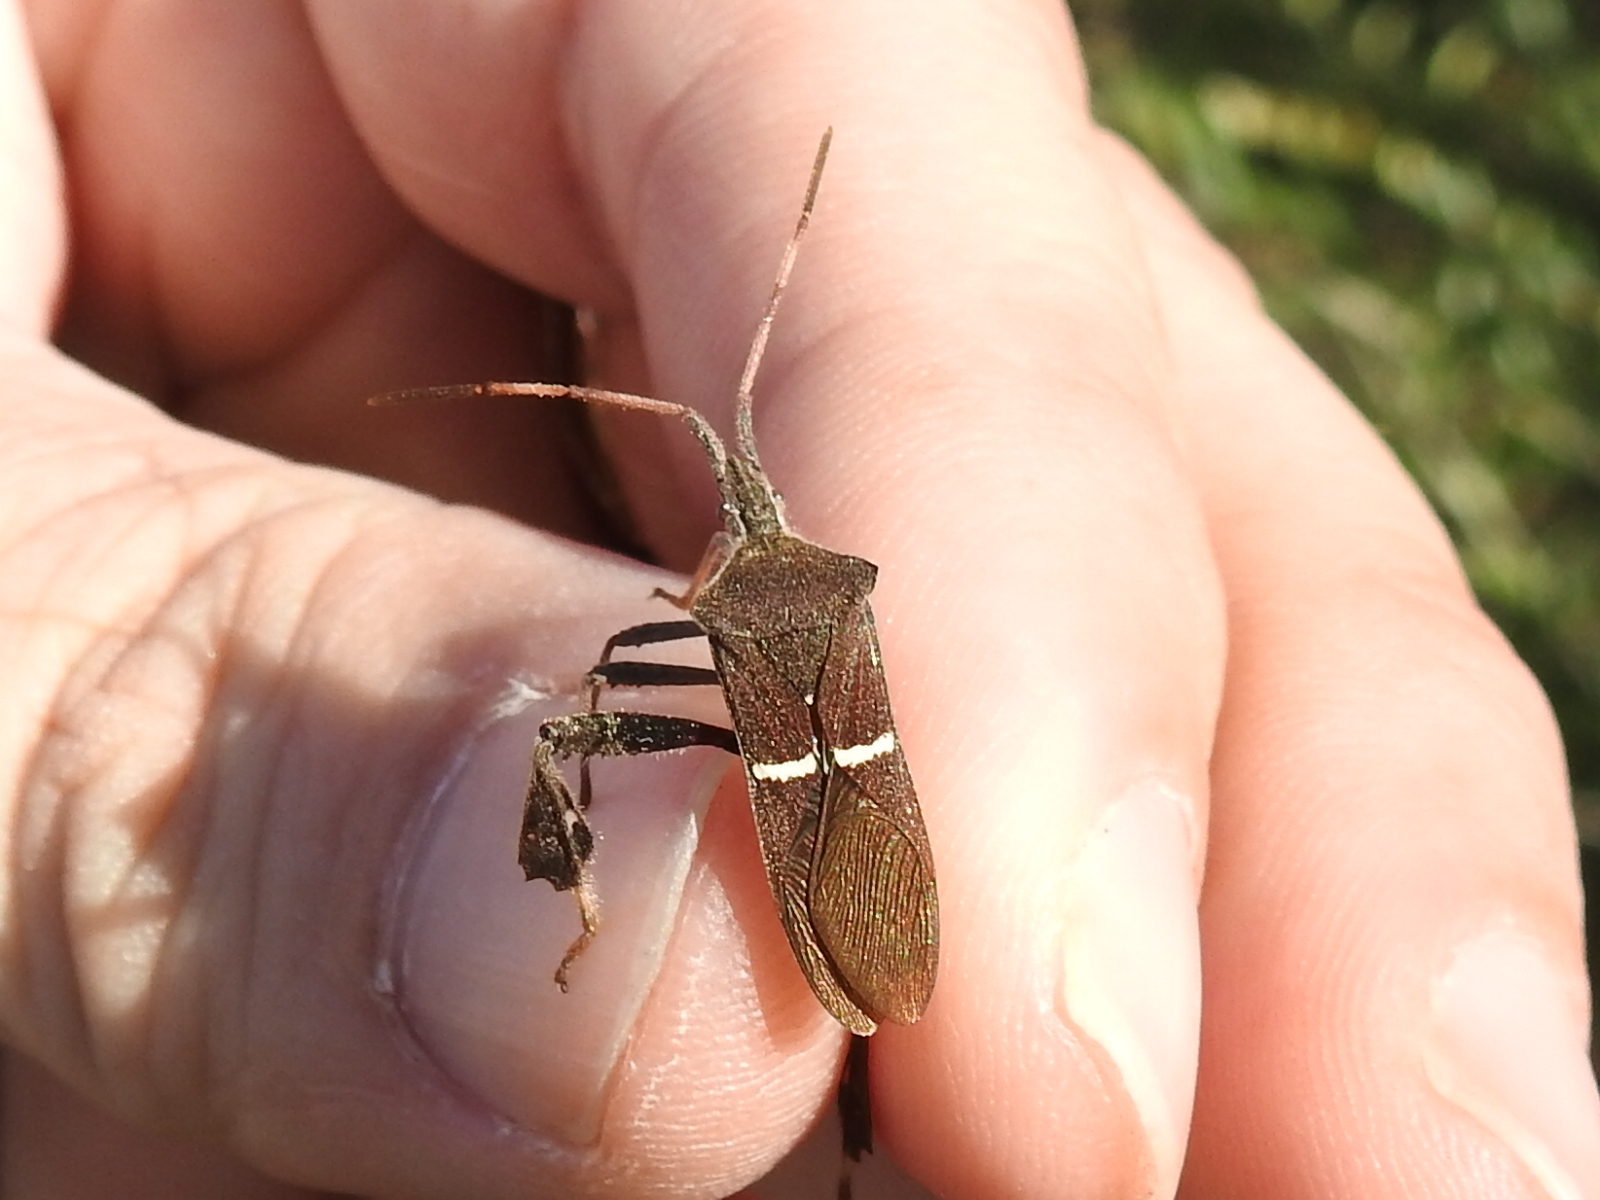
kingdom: Animalia
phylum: Arthropoda
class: Insecta
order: Hemiptera
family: Coreidae
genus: Leptoglossus
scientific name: Leptoglossus phyllopus
